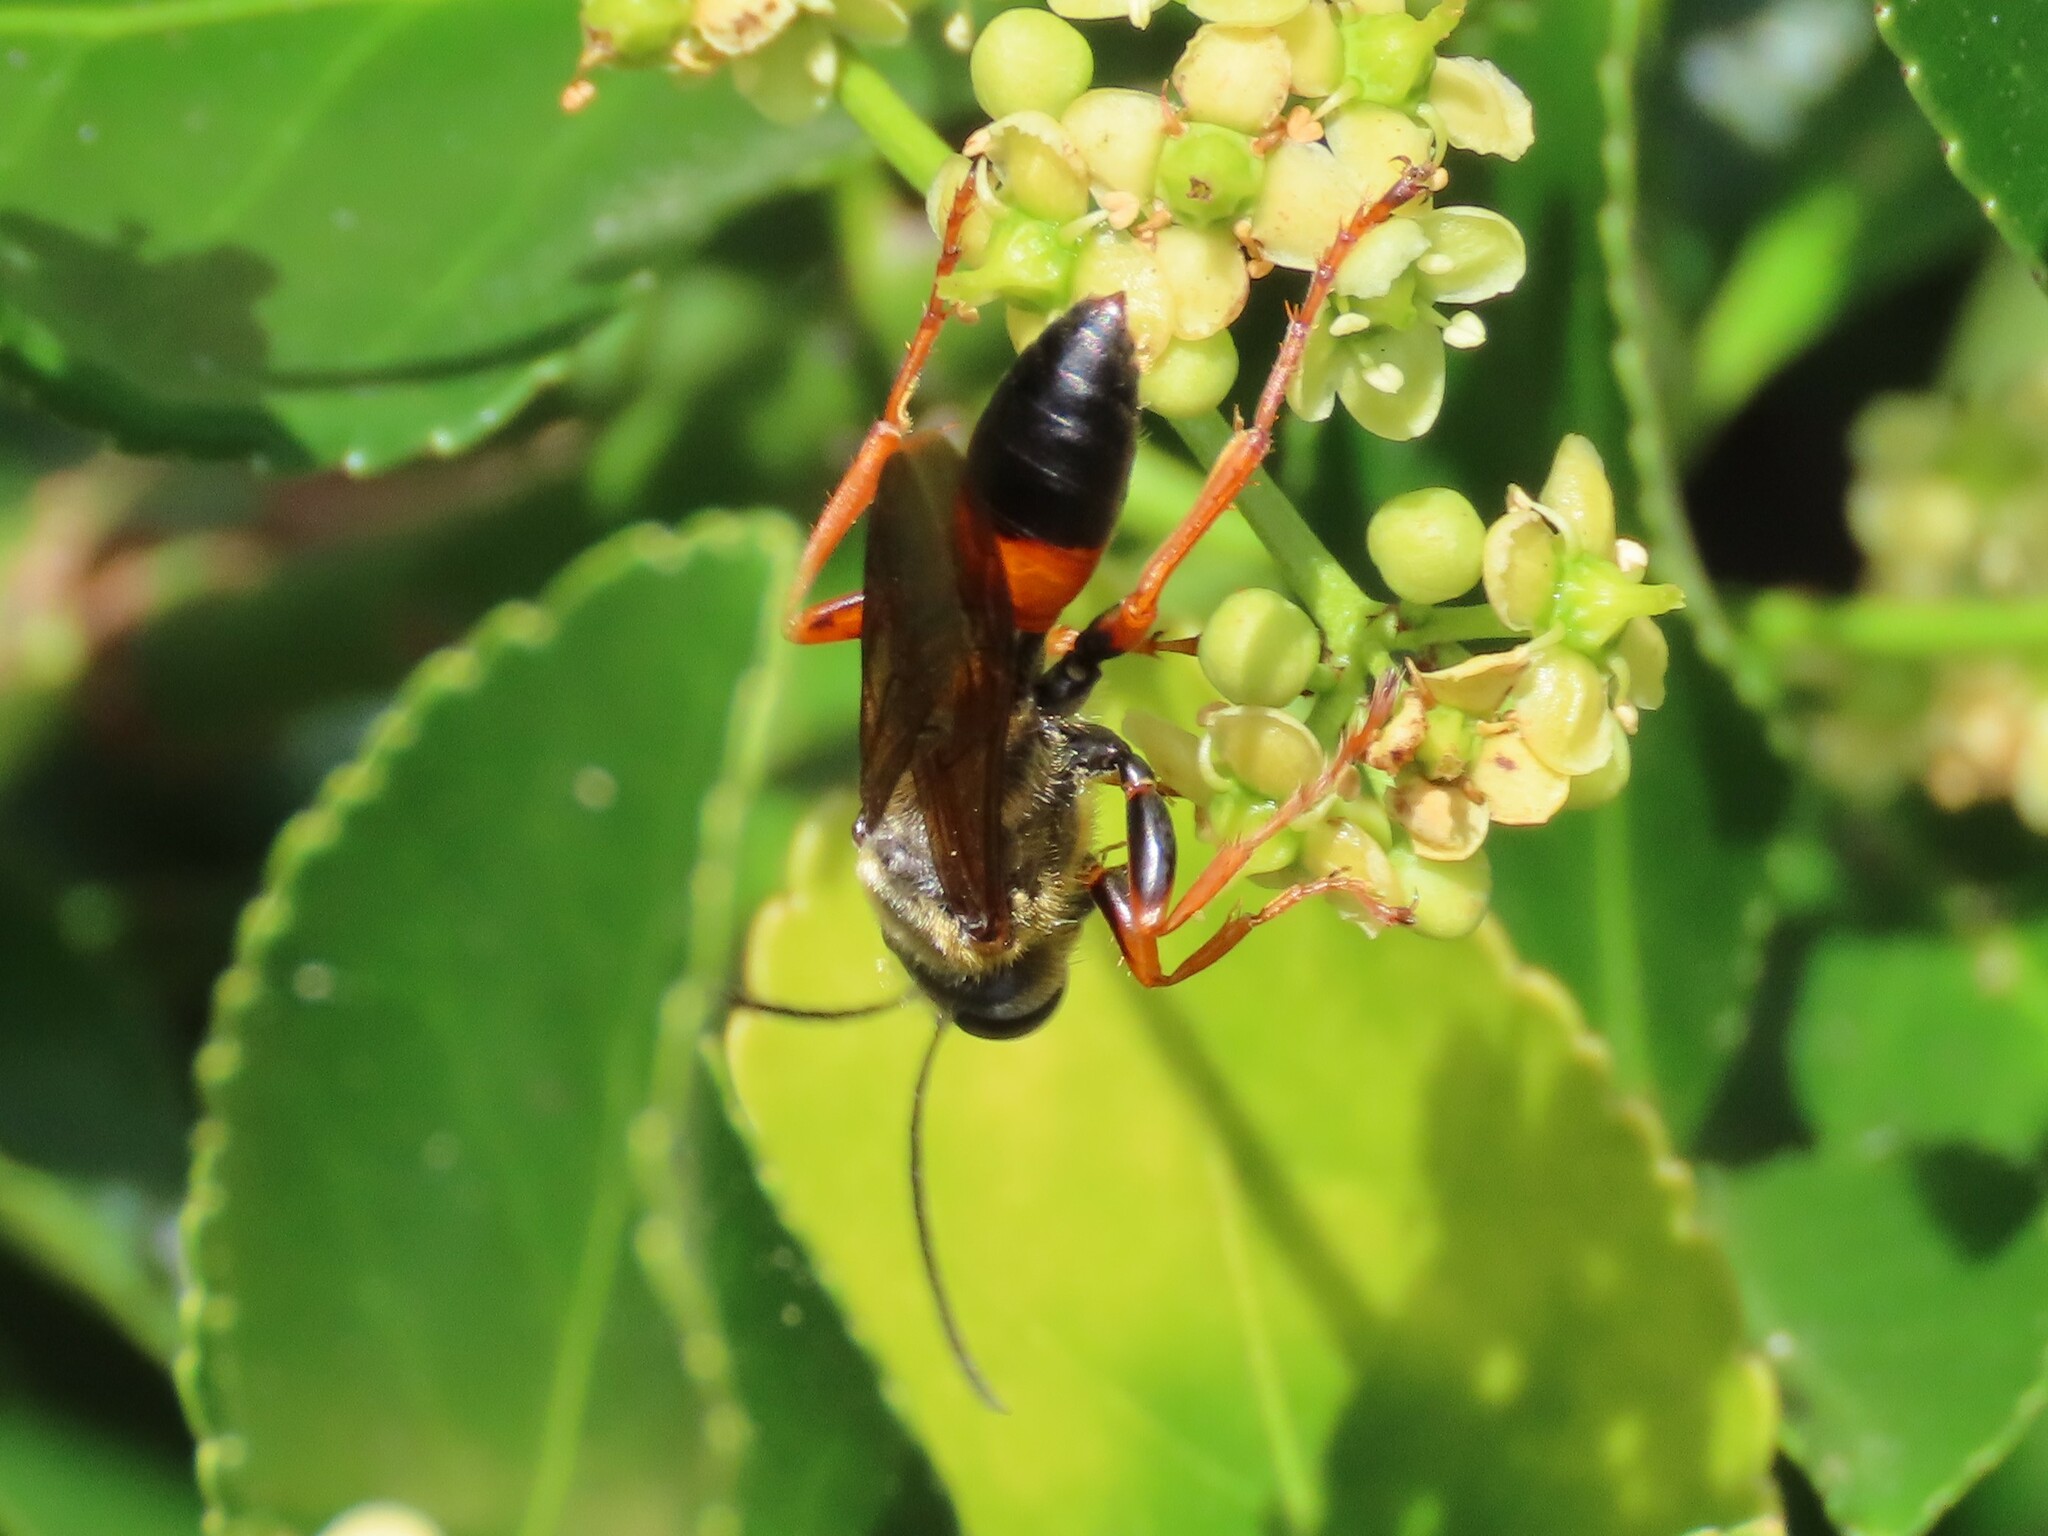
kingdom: Animalia
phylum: Arthropoda
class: Insecta
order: Hymenoptera
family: Sphecidae
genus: Sphex
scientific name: Sphex ichneumoneus
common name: Great golden digger wasp
